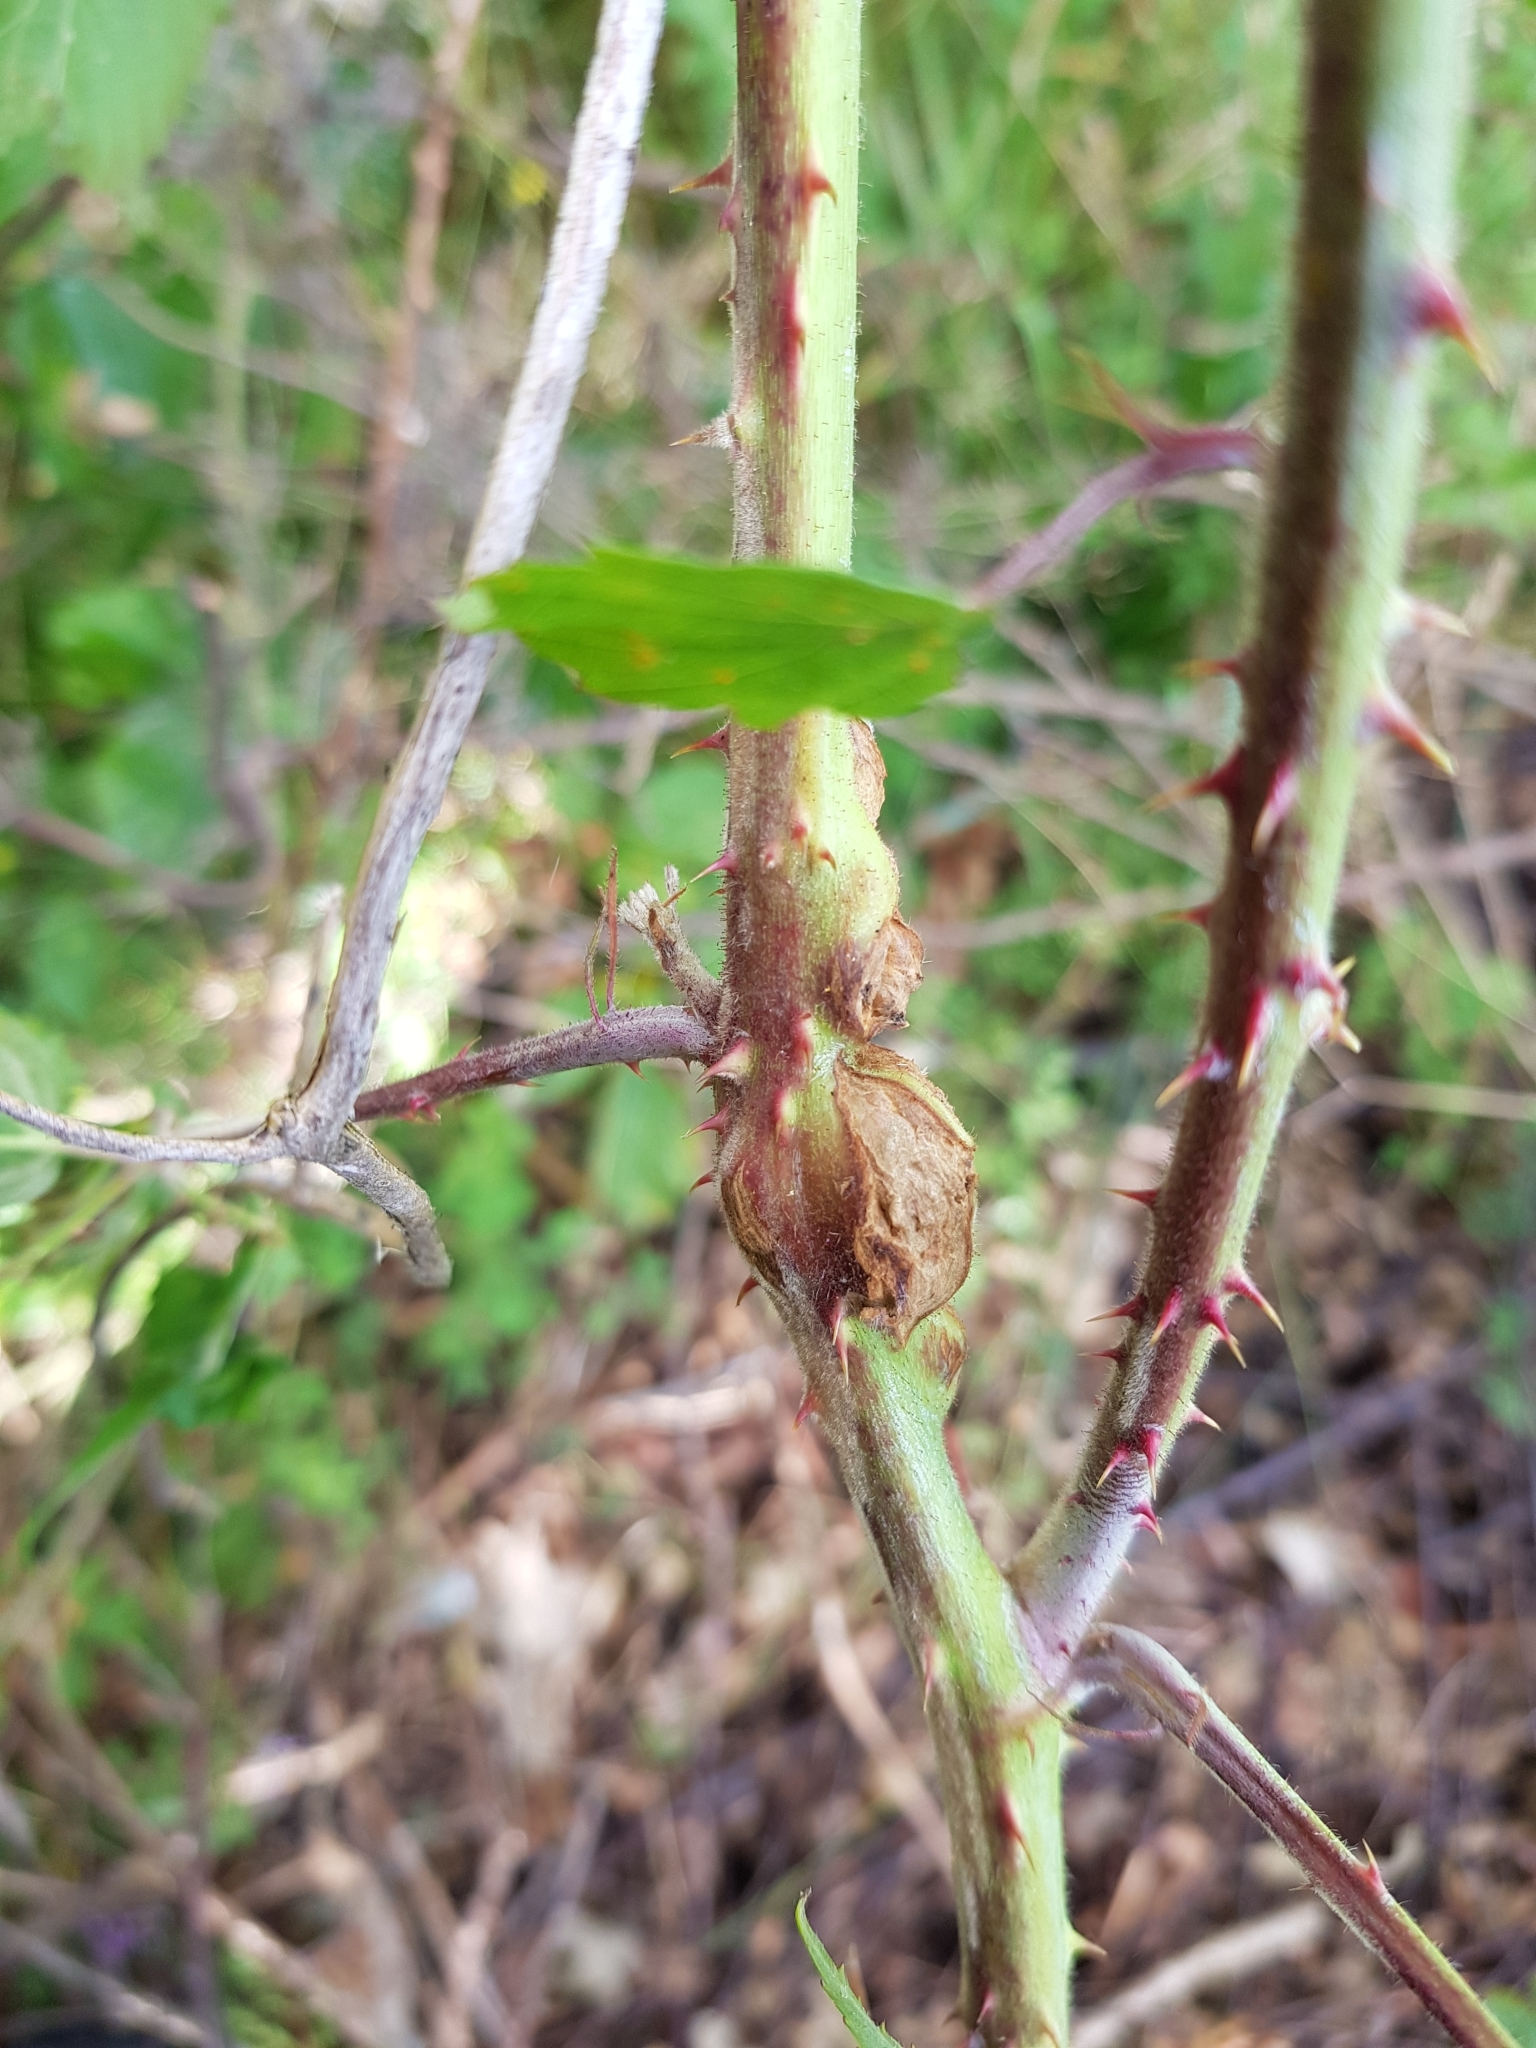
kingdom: Animalia
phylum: Arthropoda
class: Insecta
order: Diptera
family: Cecidomyiidae
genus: Lasioptera
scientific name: Lasioptera rubi
